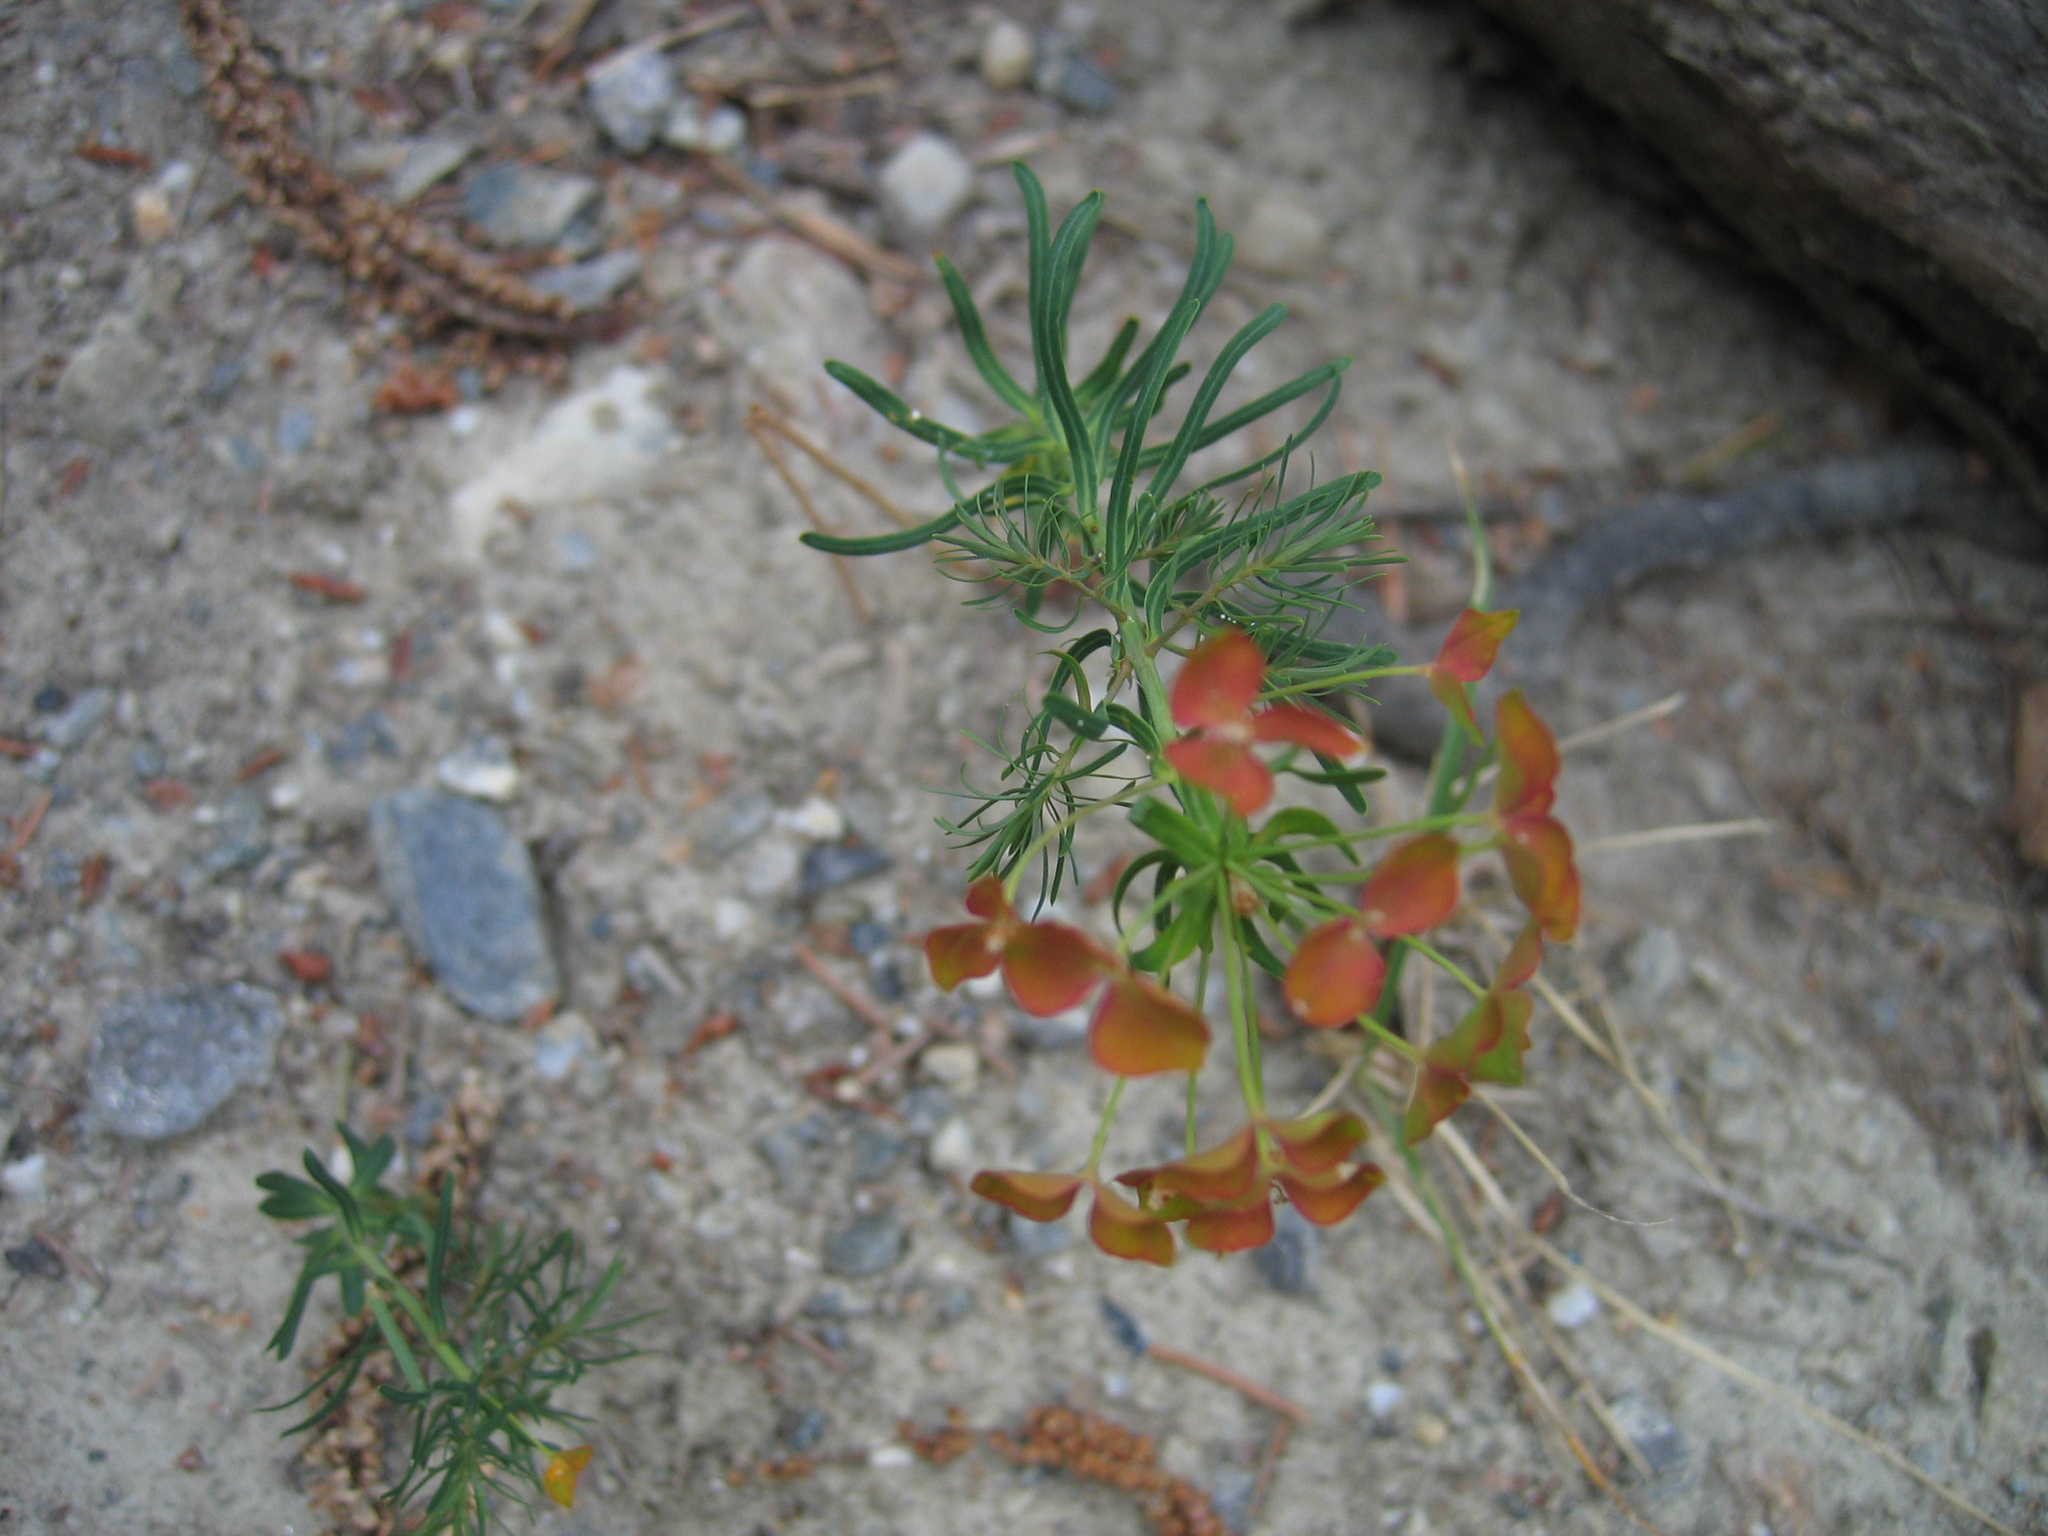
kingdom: Plantae
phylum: Tracheophyta
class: Magnoliopsida
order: Malpighiales
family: Euphorbiaceae
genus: Euphorbia
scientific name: Euphorbia cyparissias
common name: Cypress spurge
